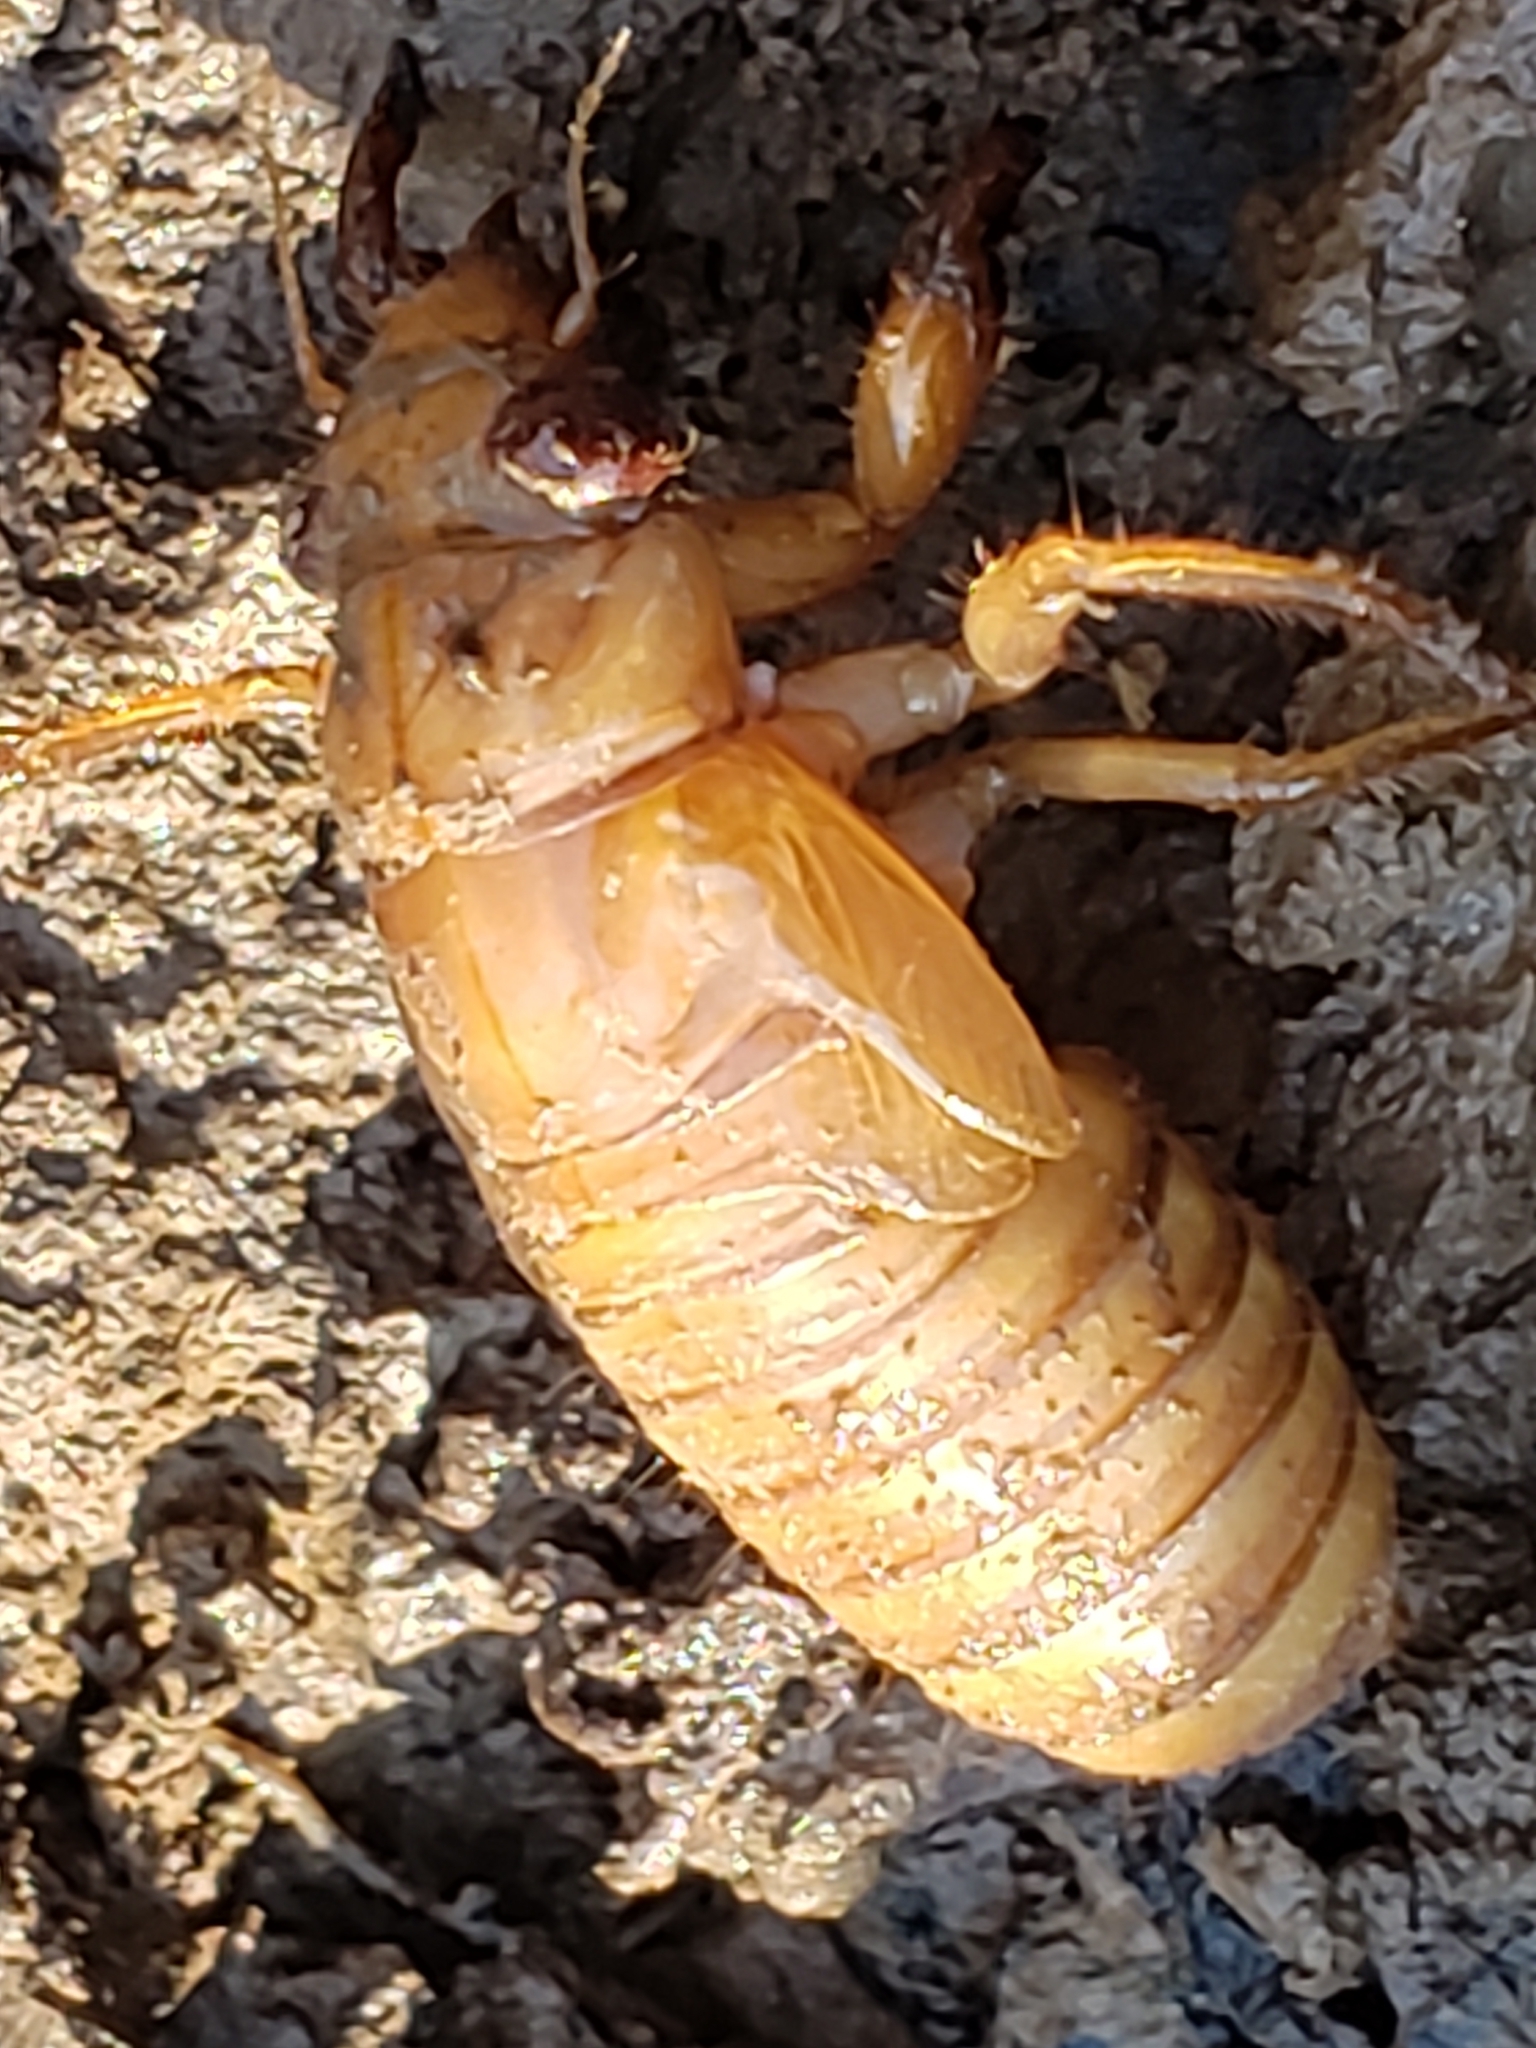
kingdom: Animalia
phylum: Arthropoda
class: Insecta
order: Hemiptera
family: Cicadidae
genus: Magicicada
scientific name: Magicicada
